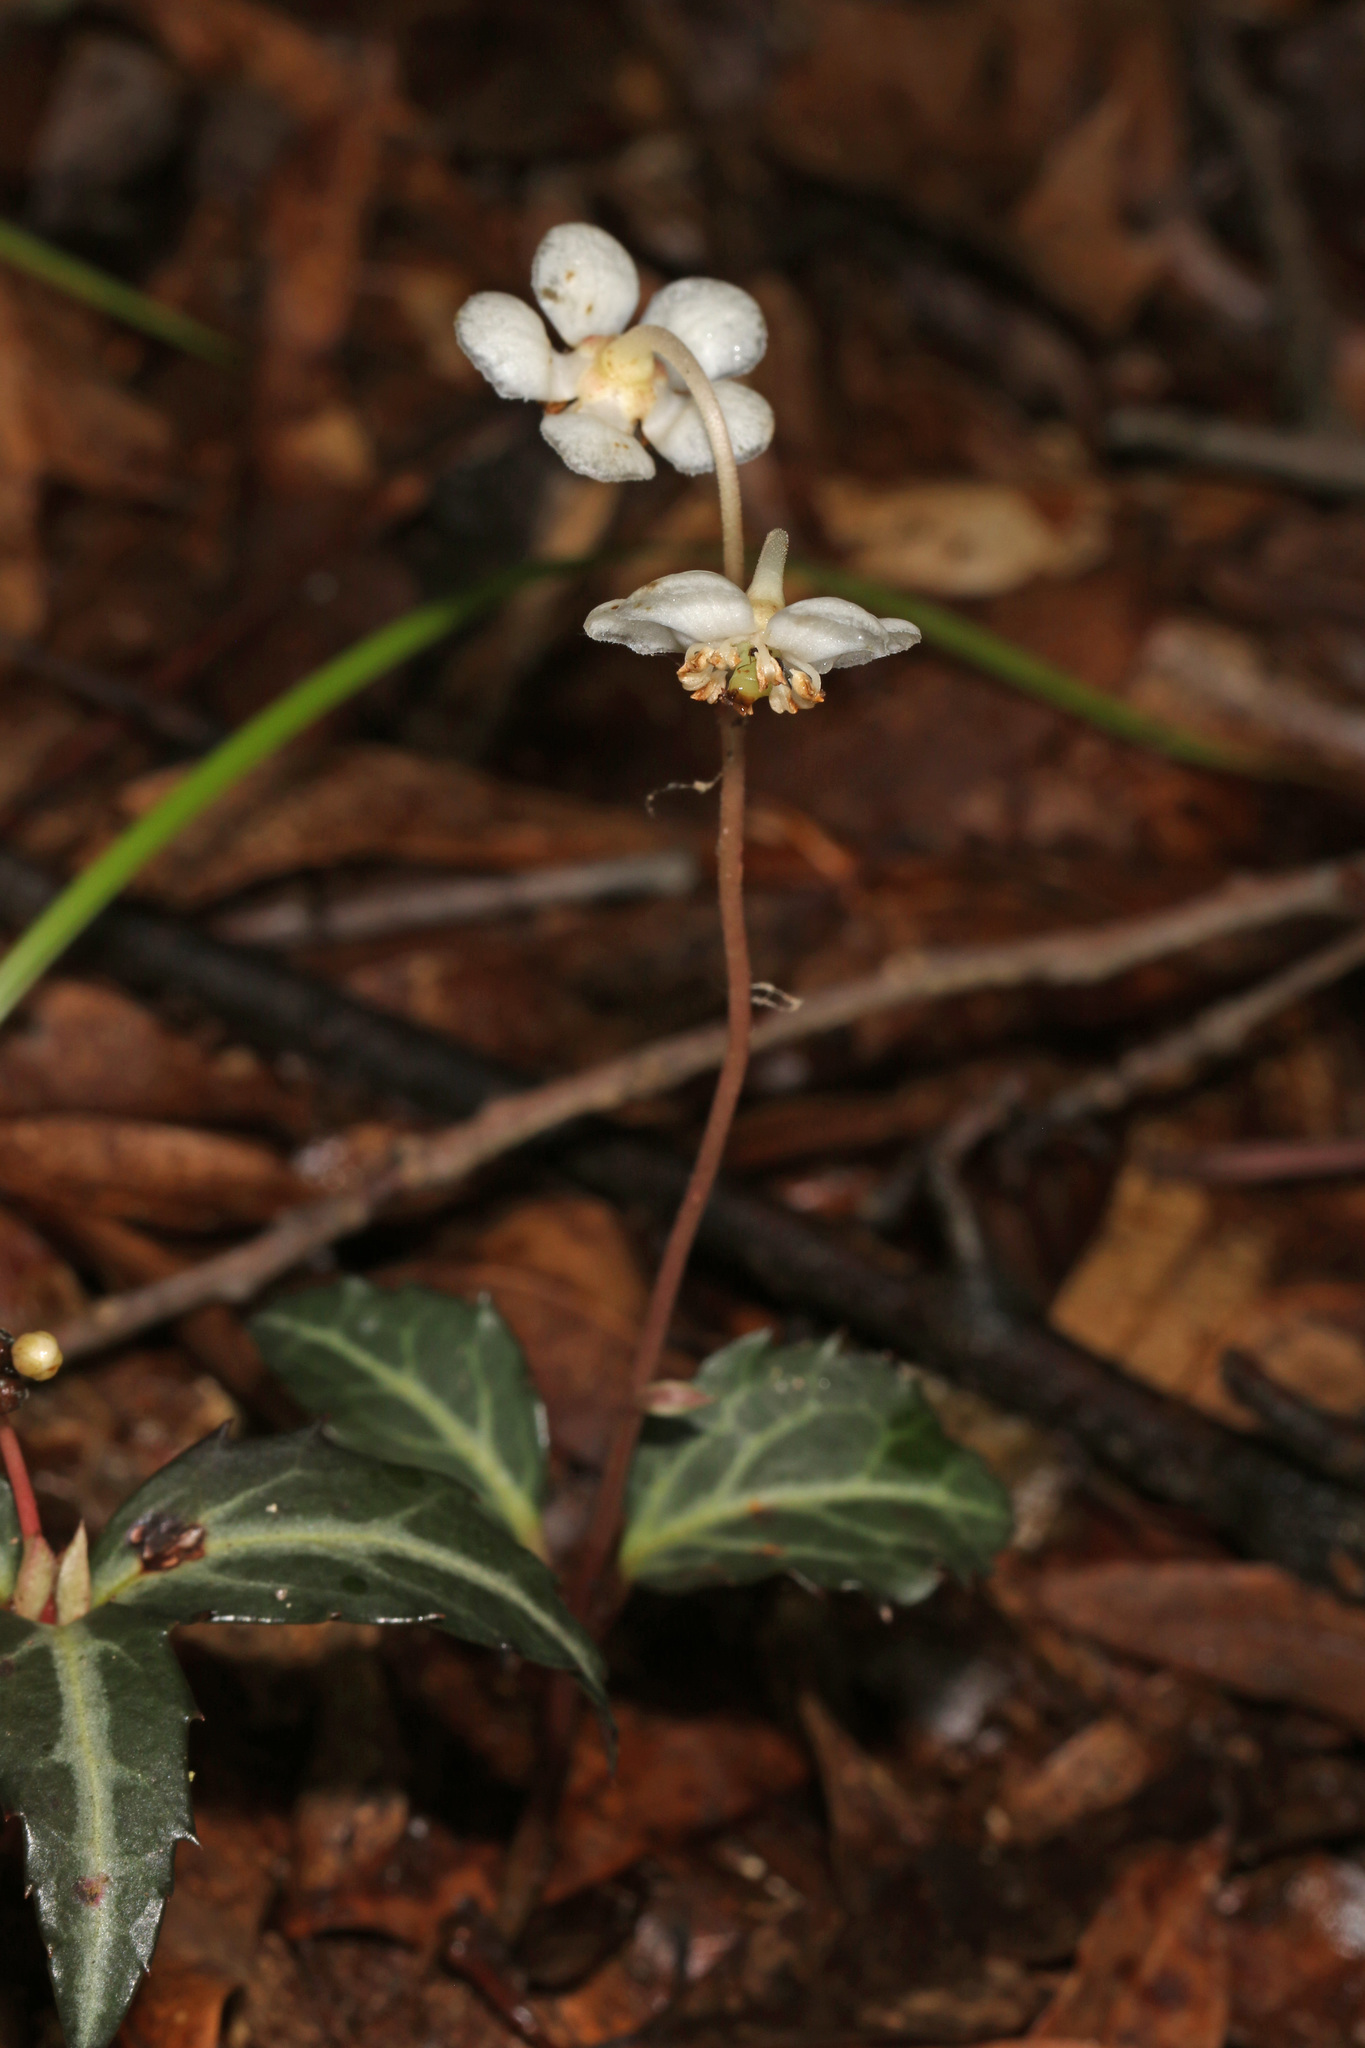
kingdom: Plantae
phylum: Tracheophyta
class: Magnoliopsida
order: Ericales
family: Ericaceae
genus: Chimaphila
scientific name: Chimaphila maculata
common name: Spotted pipsissewa
